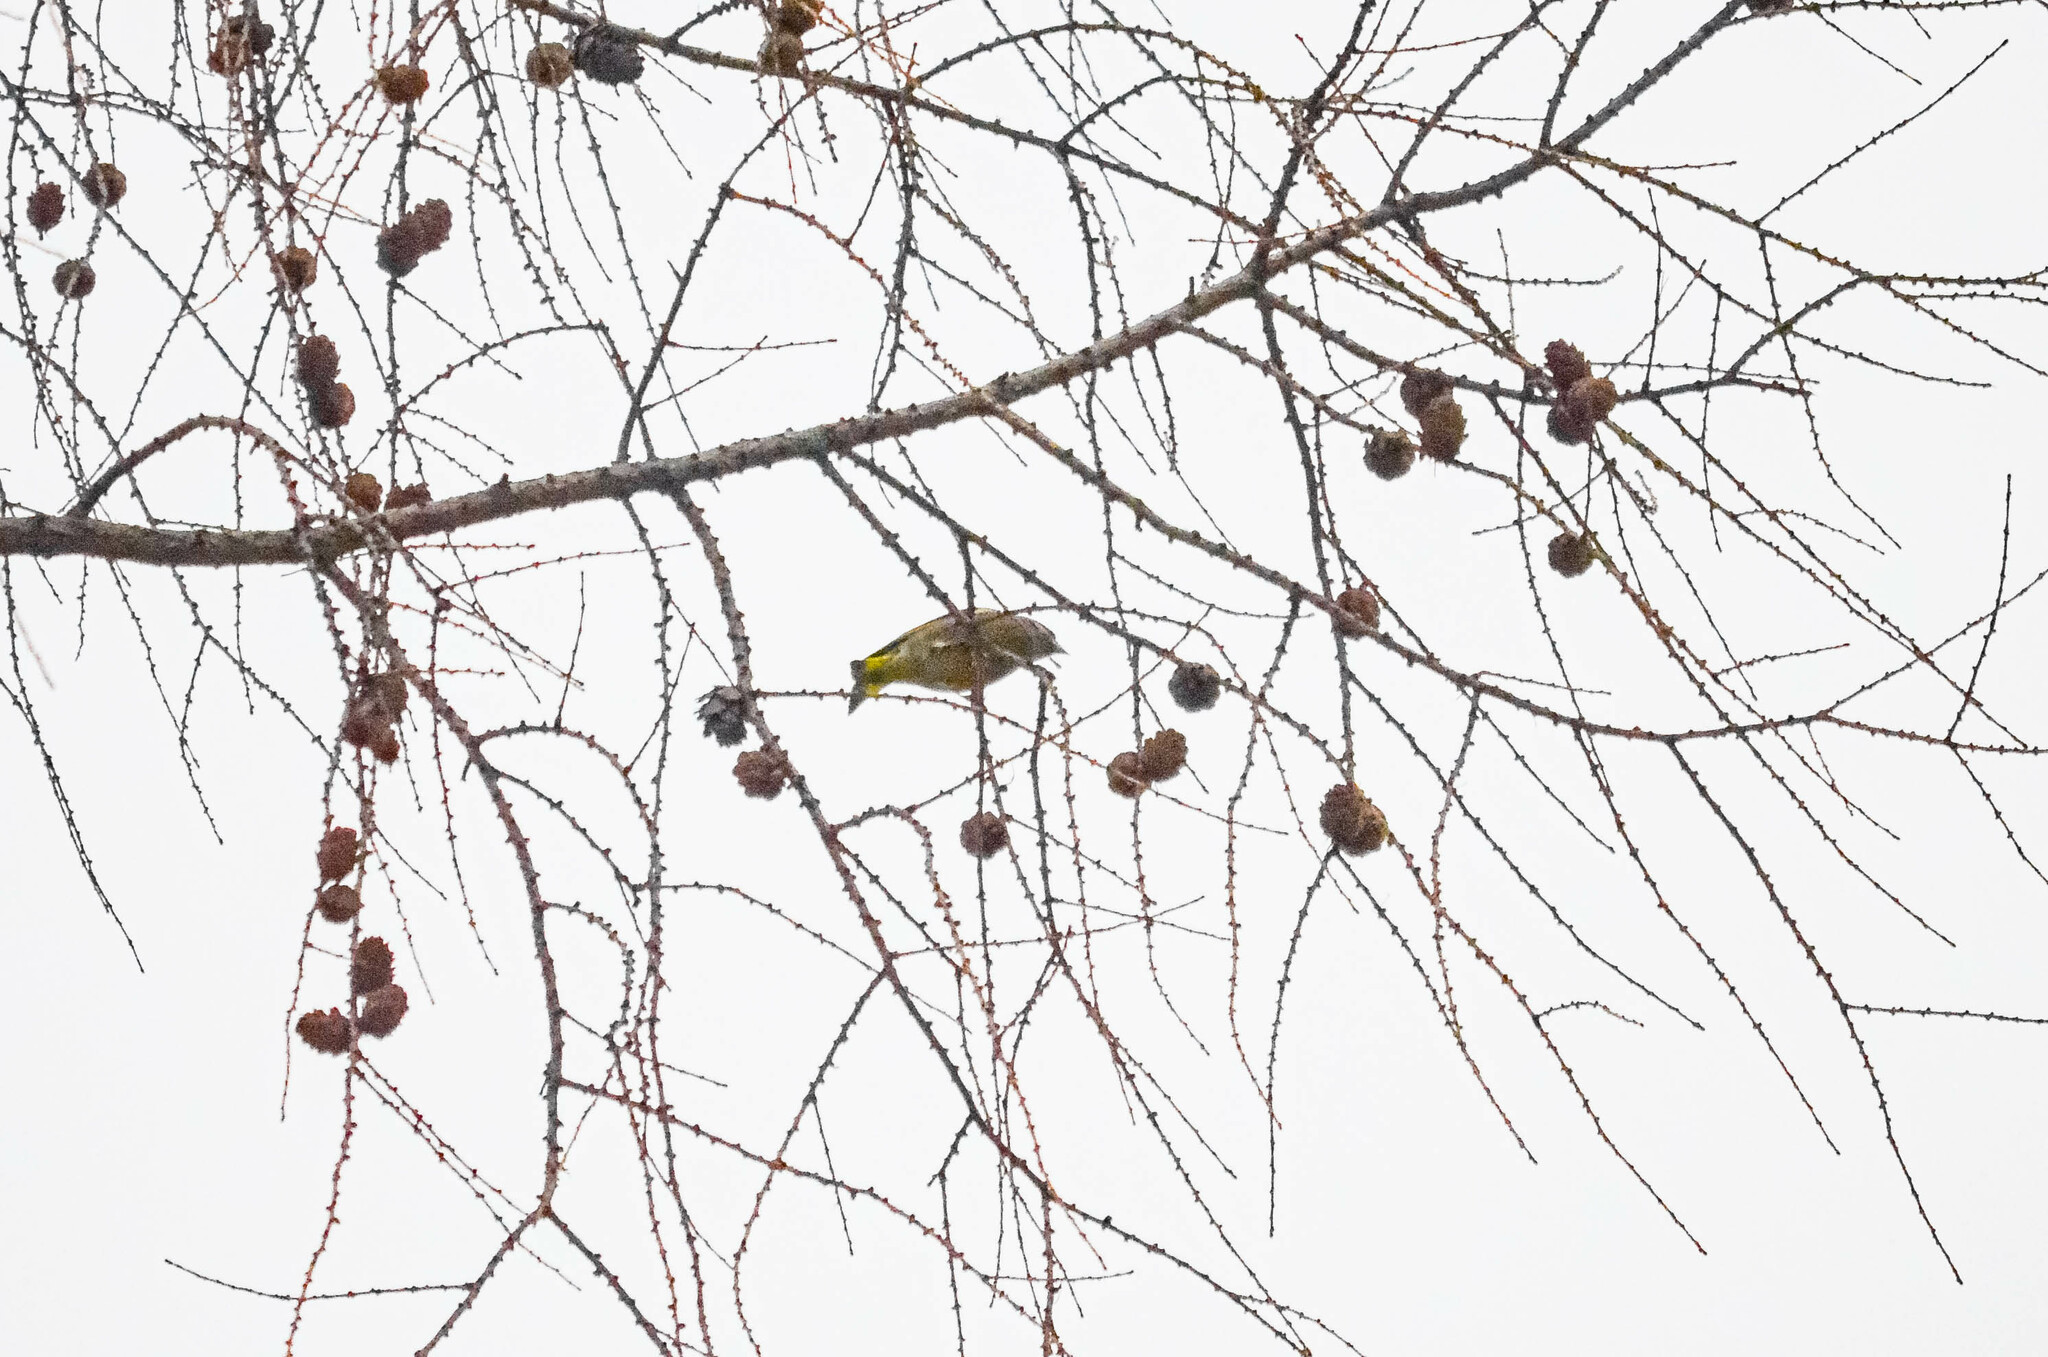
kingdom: Plantae
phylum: Tracheophyta
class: Liliopsida
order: Poales
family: Poaceae
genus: Chloris
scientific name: Chloris chloris
